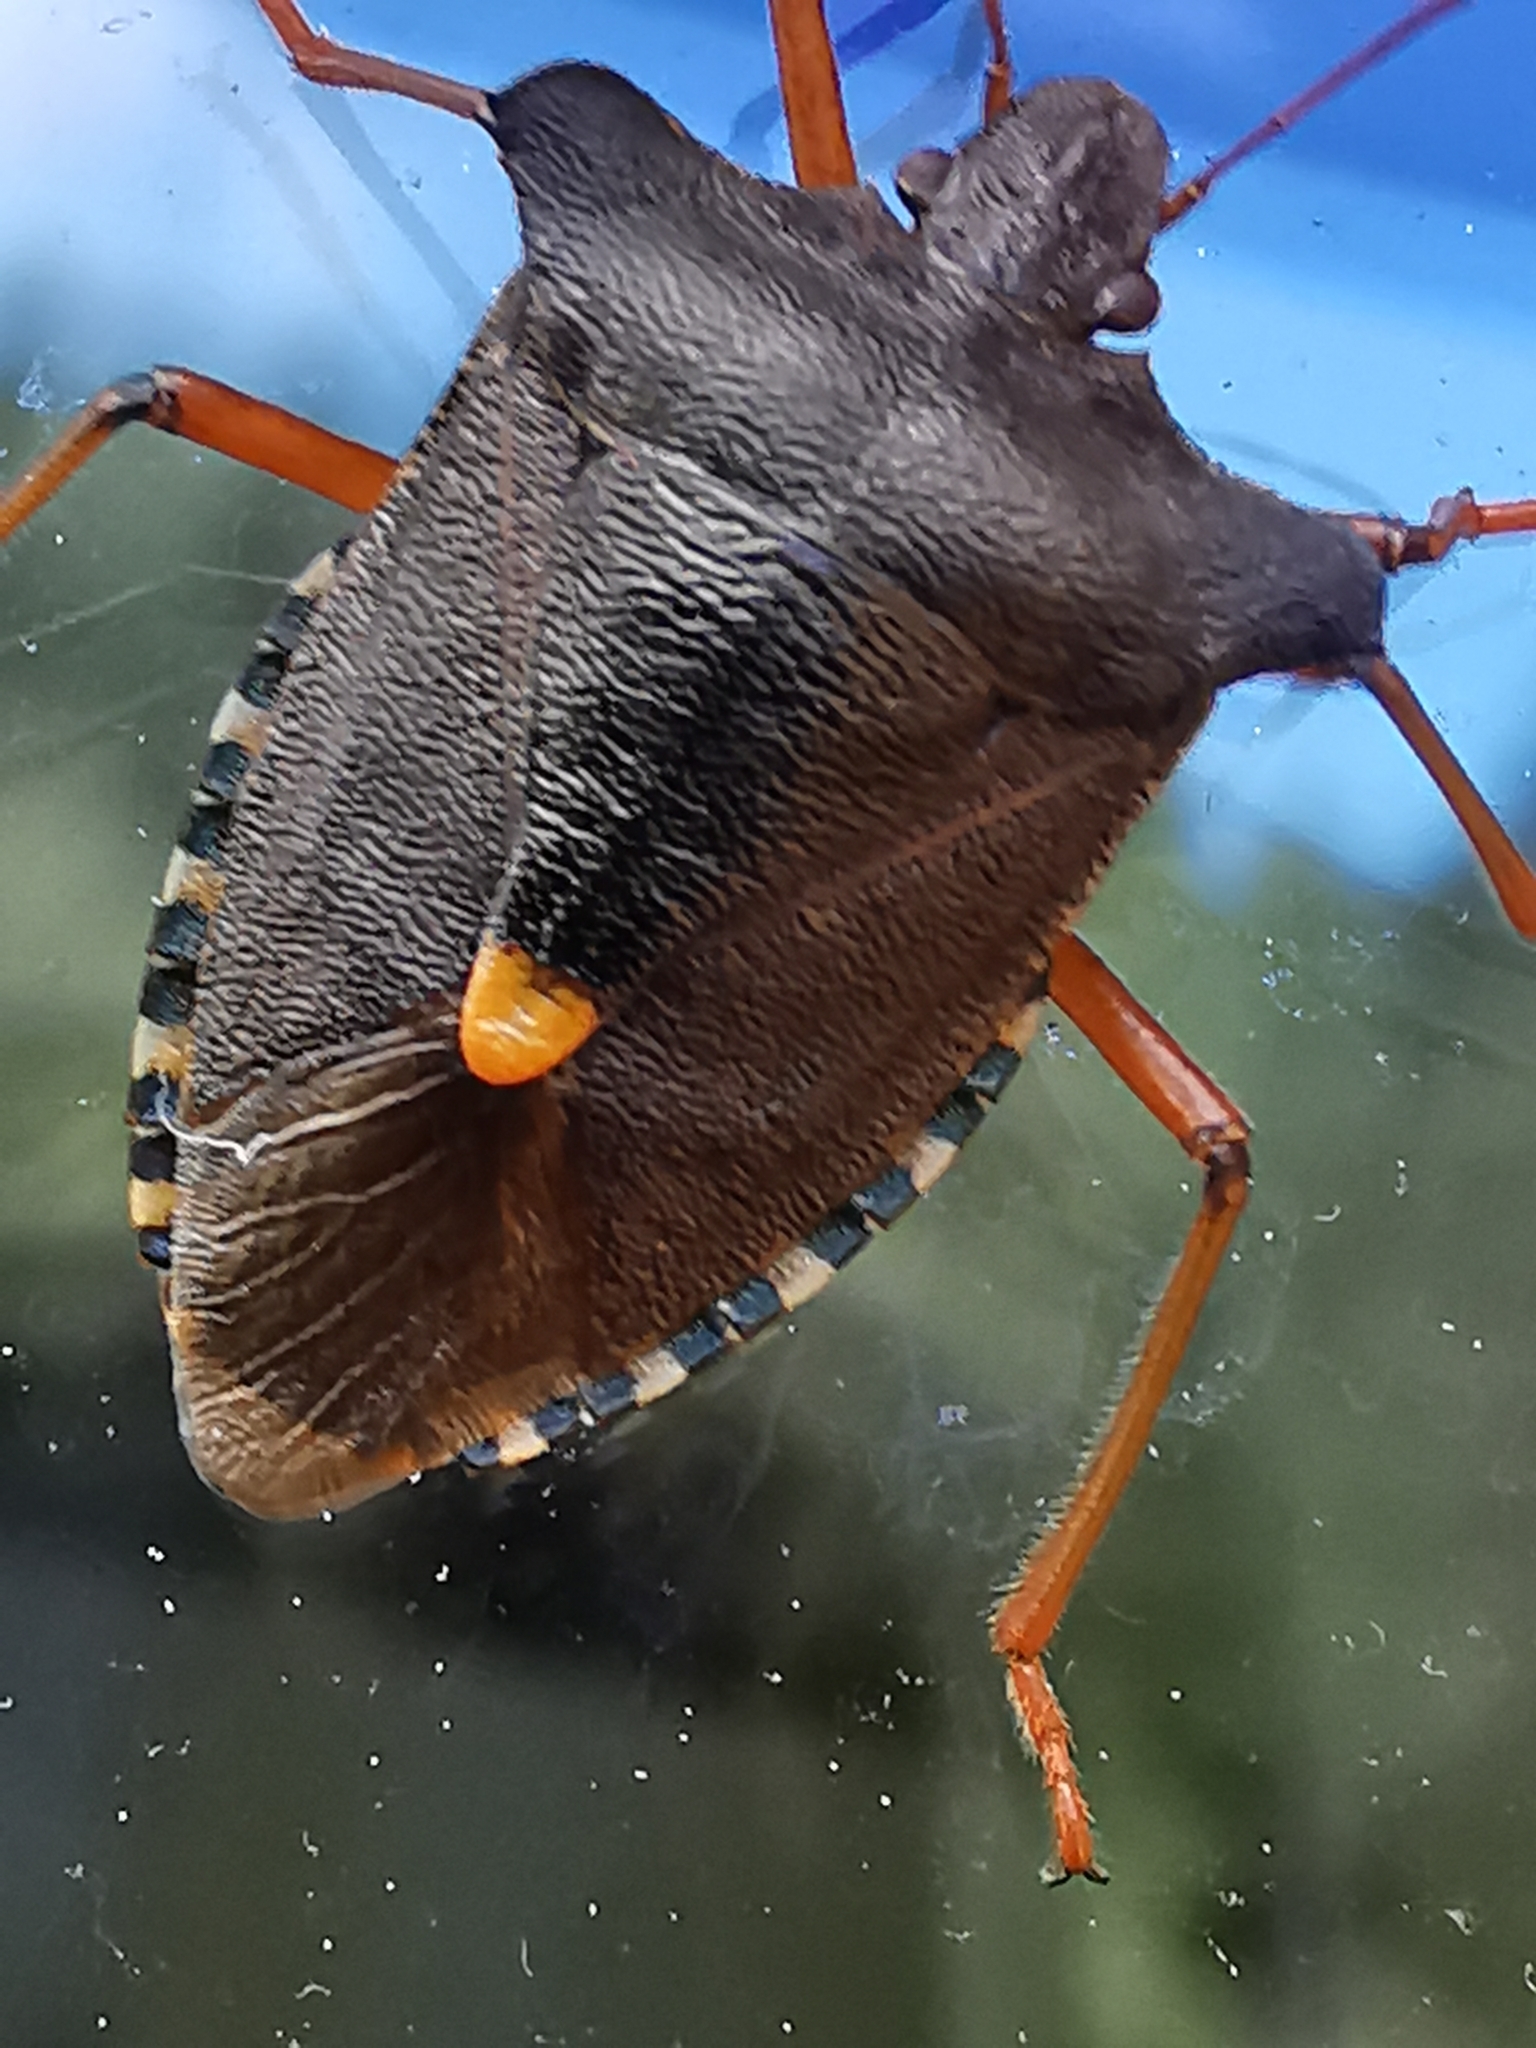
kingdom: Animalia
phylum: Arthropoda
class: Insecta
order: Hemiptera
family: Pentatomidae
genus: Pentatoma
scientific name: Pentatoma rufipes
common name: Forest bug
